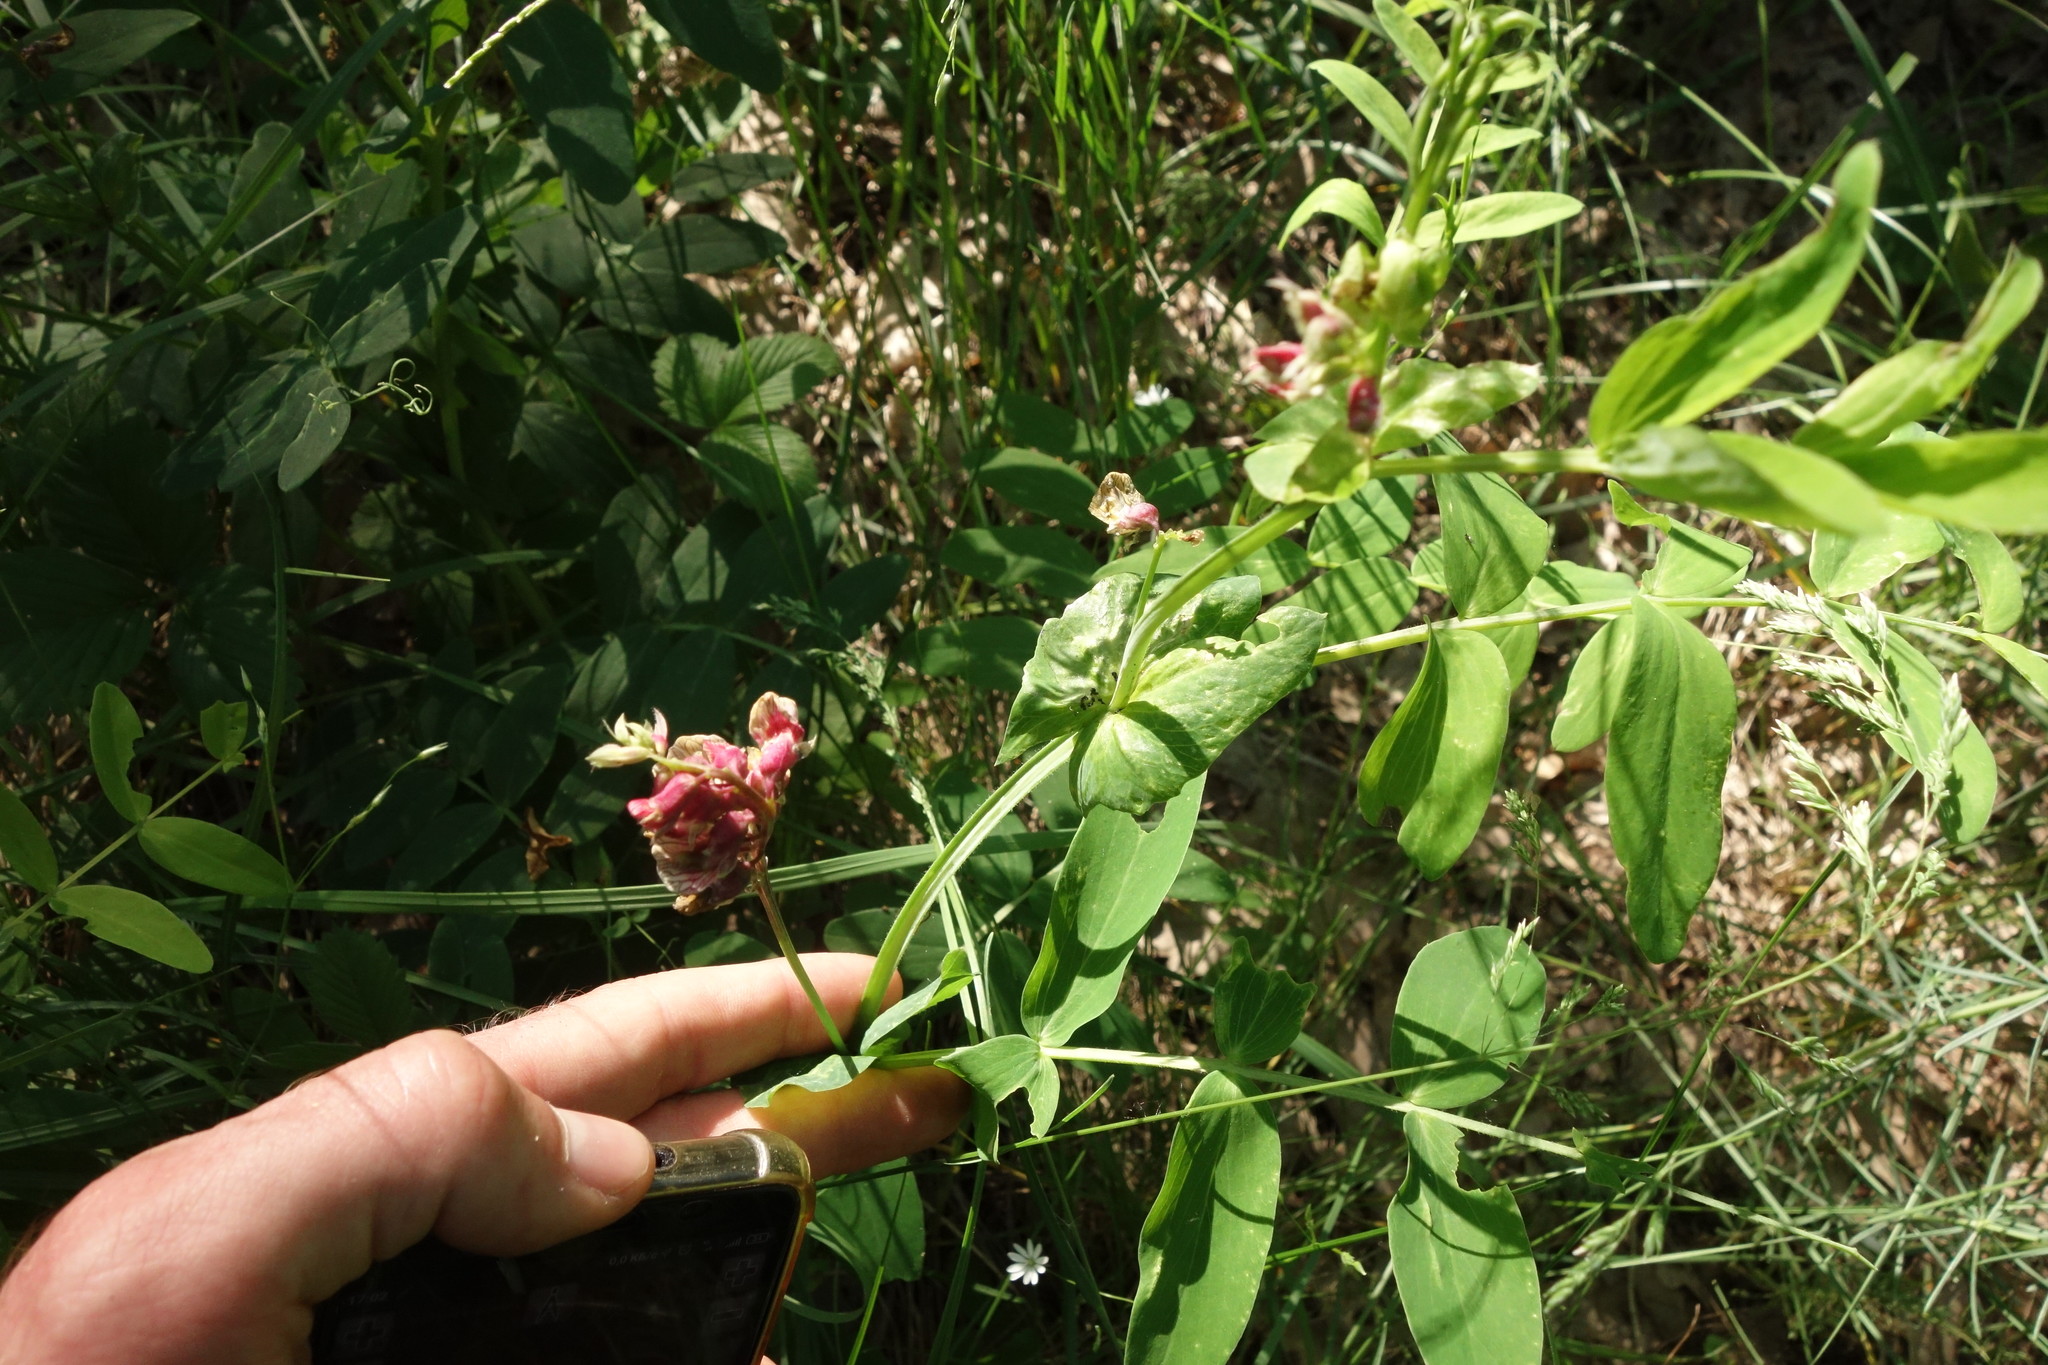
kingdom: Plantae
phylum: Tracheophyta
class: Magnoliopsida
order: Fabales
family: Fabaceae
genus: Lathyrus
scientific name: Lathyrus pisiformis
